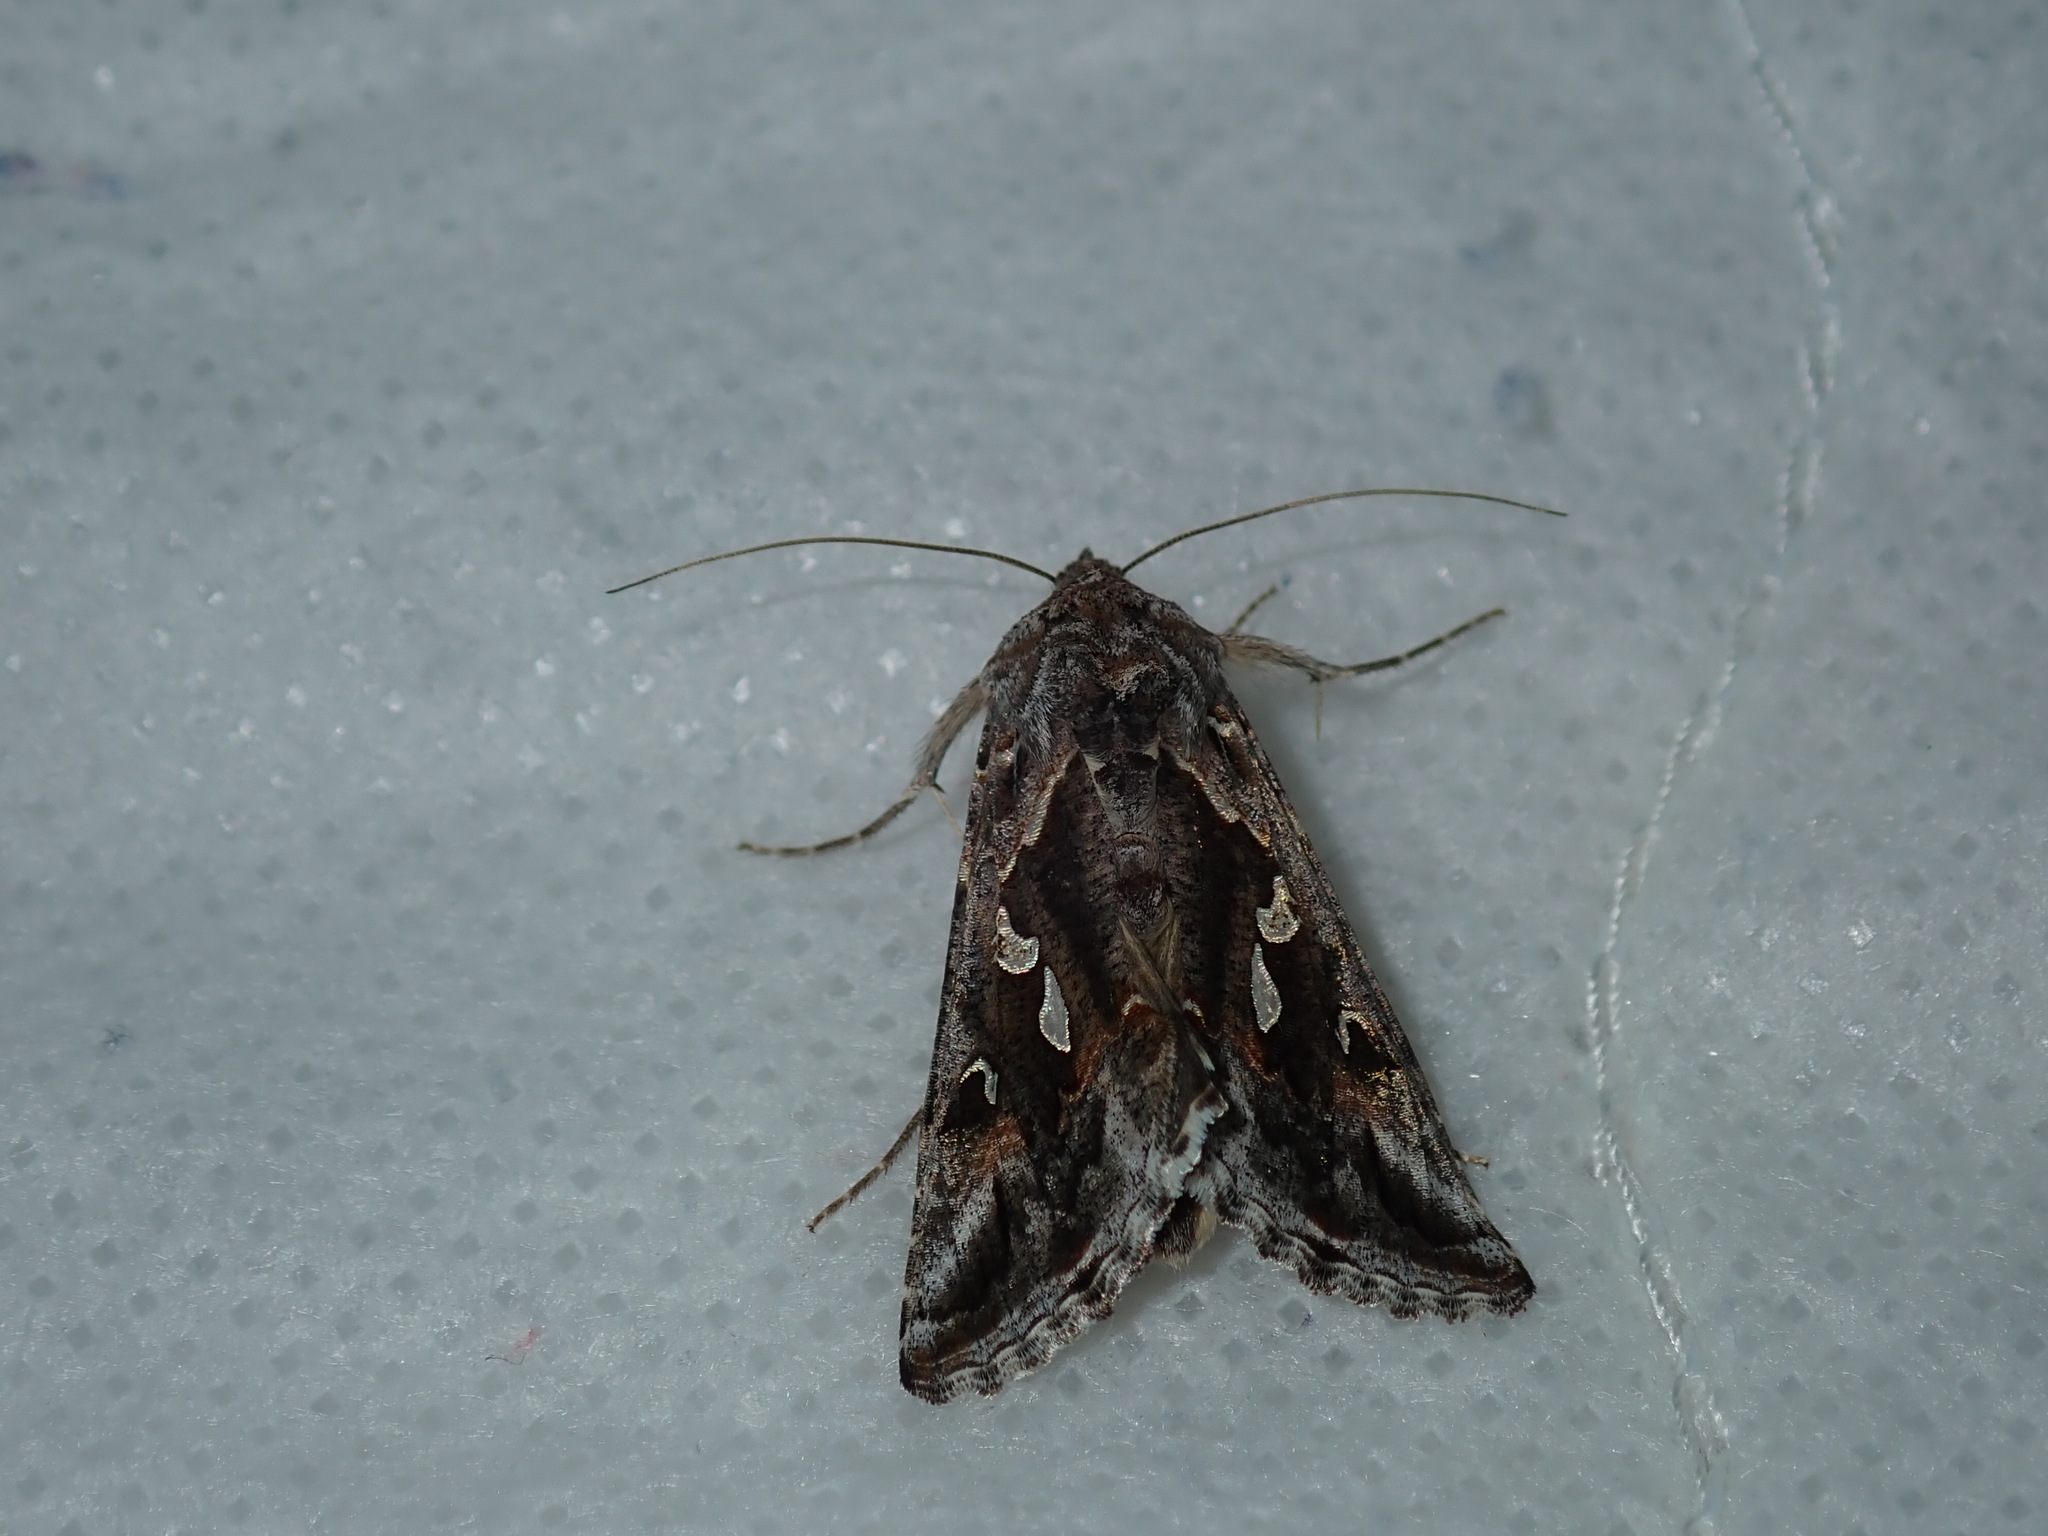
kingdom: Animalia
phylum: Arthropoda
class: Insecta
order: Lepidoptera
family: Noctuidae
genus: Chrysodeixis
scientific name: Chrysodeixis argentifera
